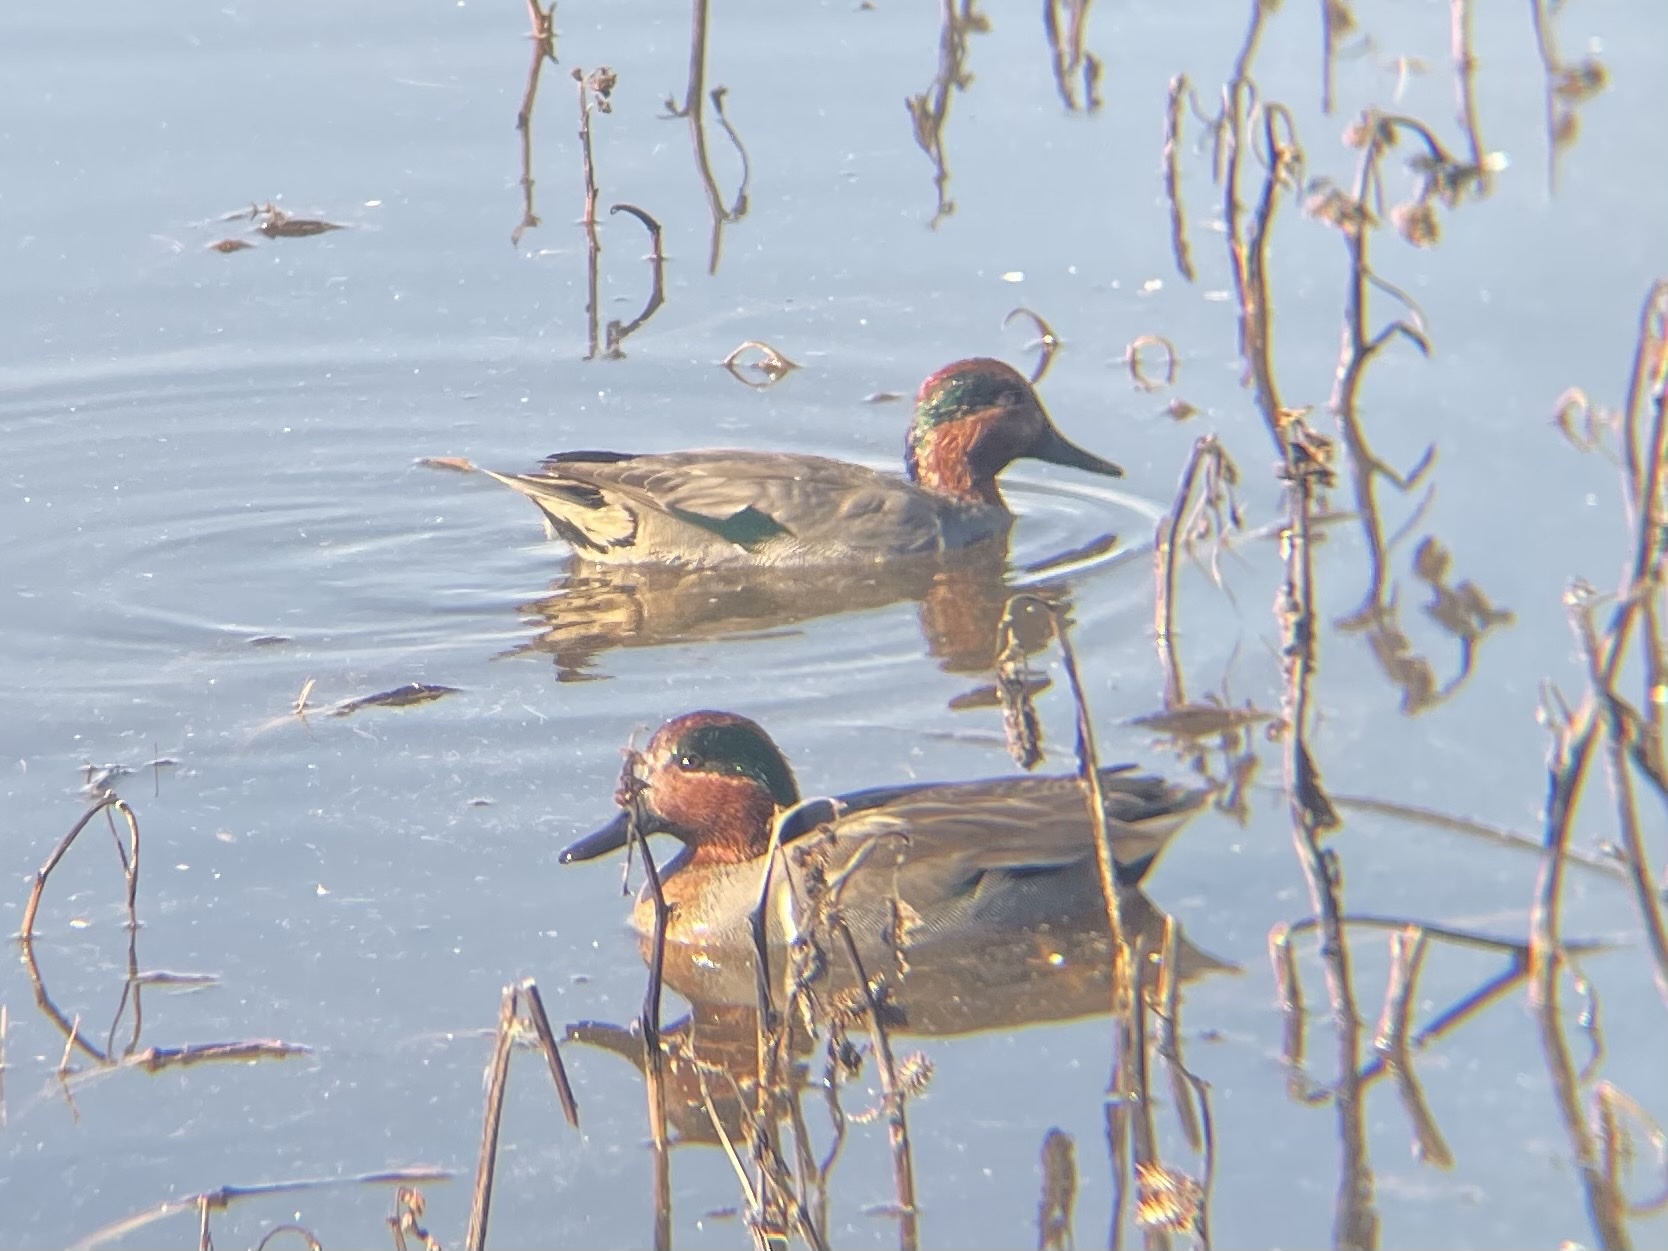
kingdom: Animalia
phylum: Chordata
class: Aves
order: Anseriformes
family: Anatidae
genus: Anas
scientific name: Anas crecca
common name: Eurasian teal
